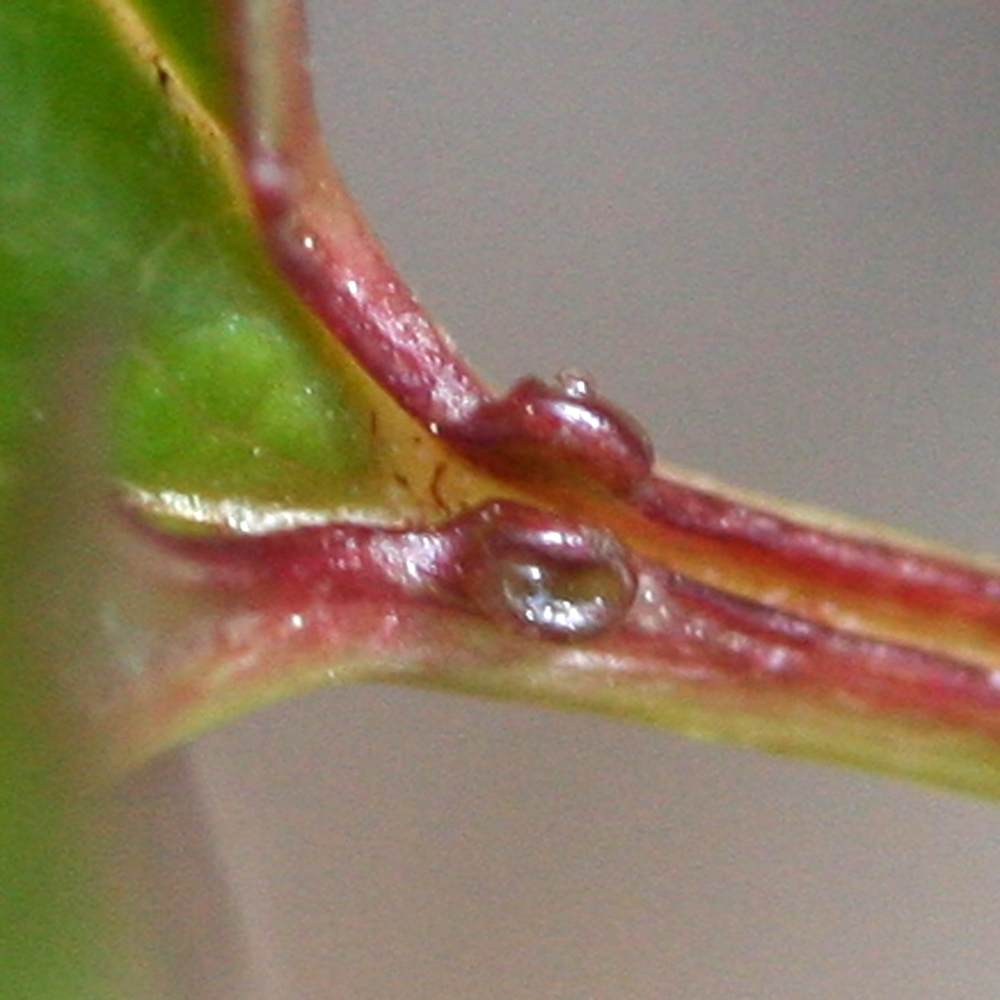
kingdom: Plantae
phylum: Tracheophyta
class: Magnoliopsida
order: Dipsacales
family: Viburnaceae
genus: Viburnum
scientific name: Viburnum opulus
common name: Guelder-rose
